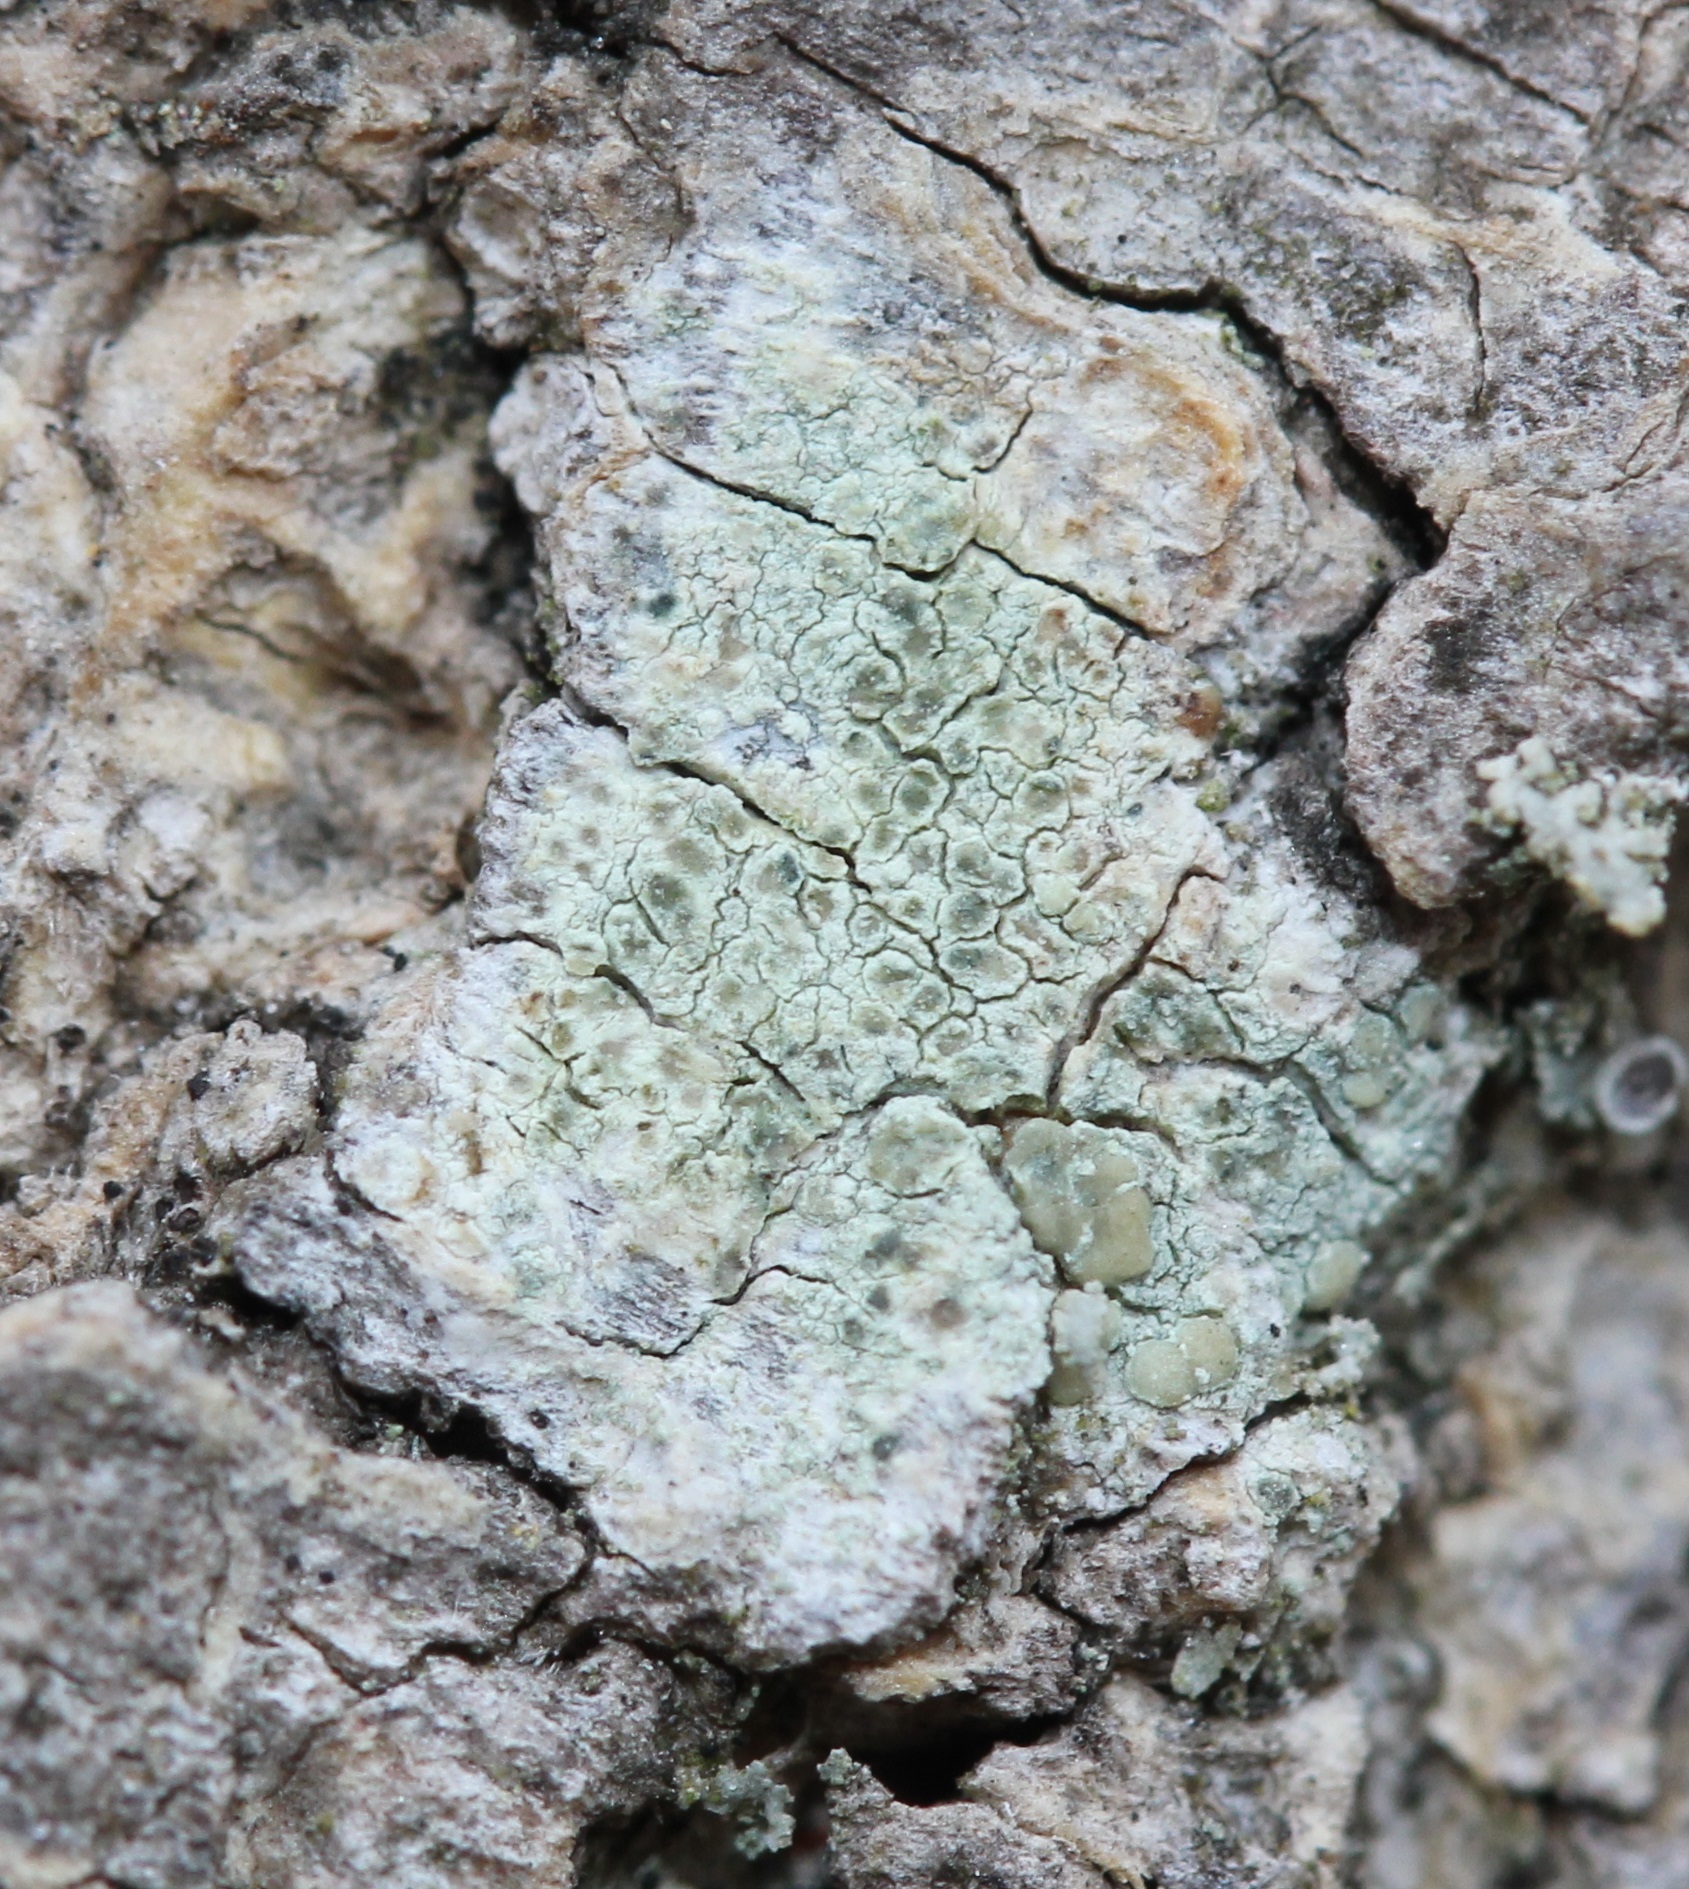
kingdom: Fungi
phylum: Ascomycota
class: Lecanoromycetes
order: Lecanorales
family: Lecanoraceae
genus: Lecanora
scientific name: Lecanora strobilina
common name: Mealy rim-lichen
